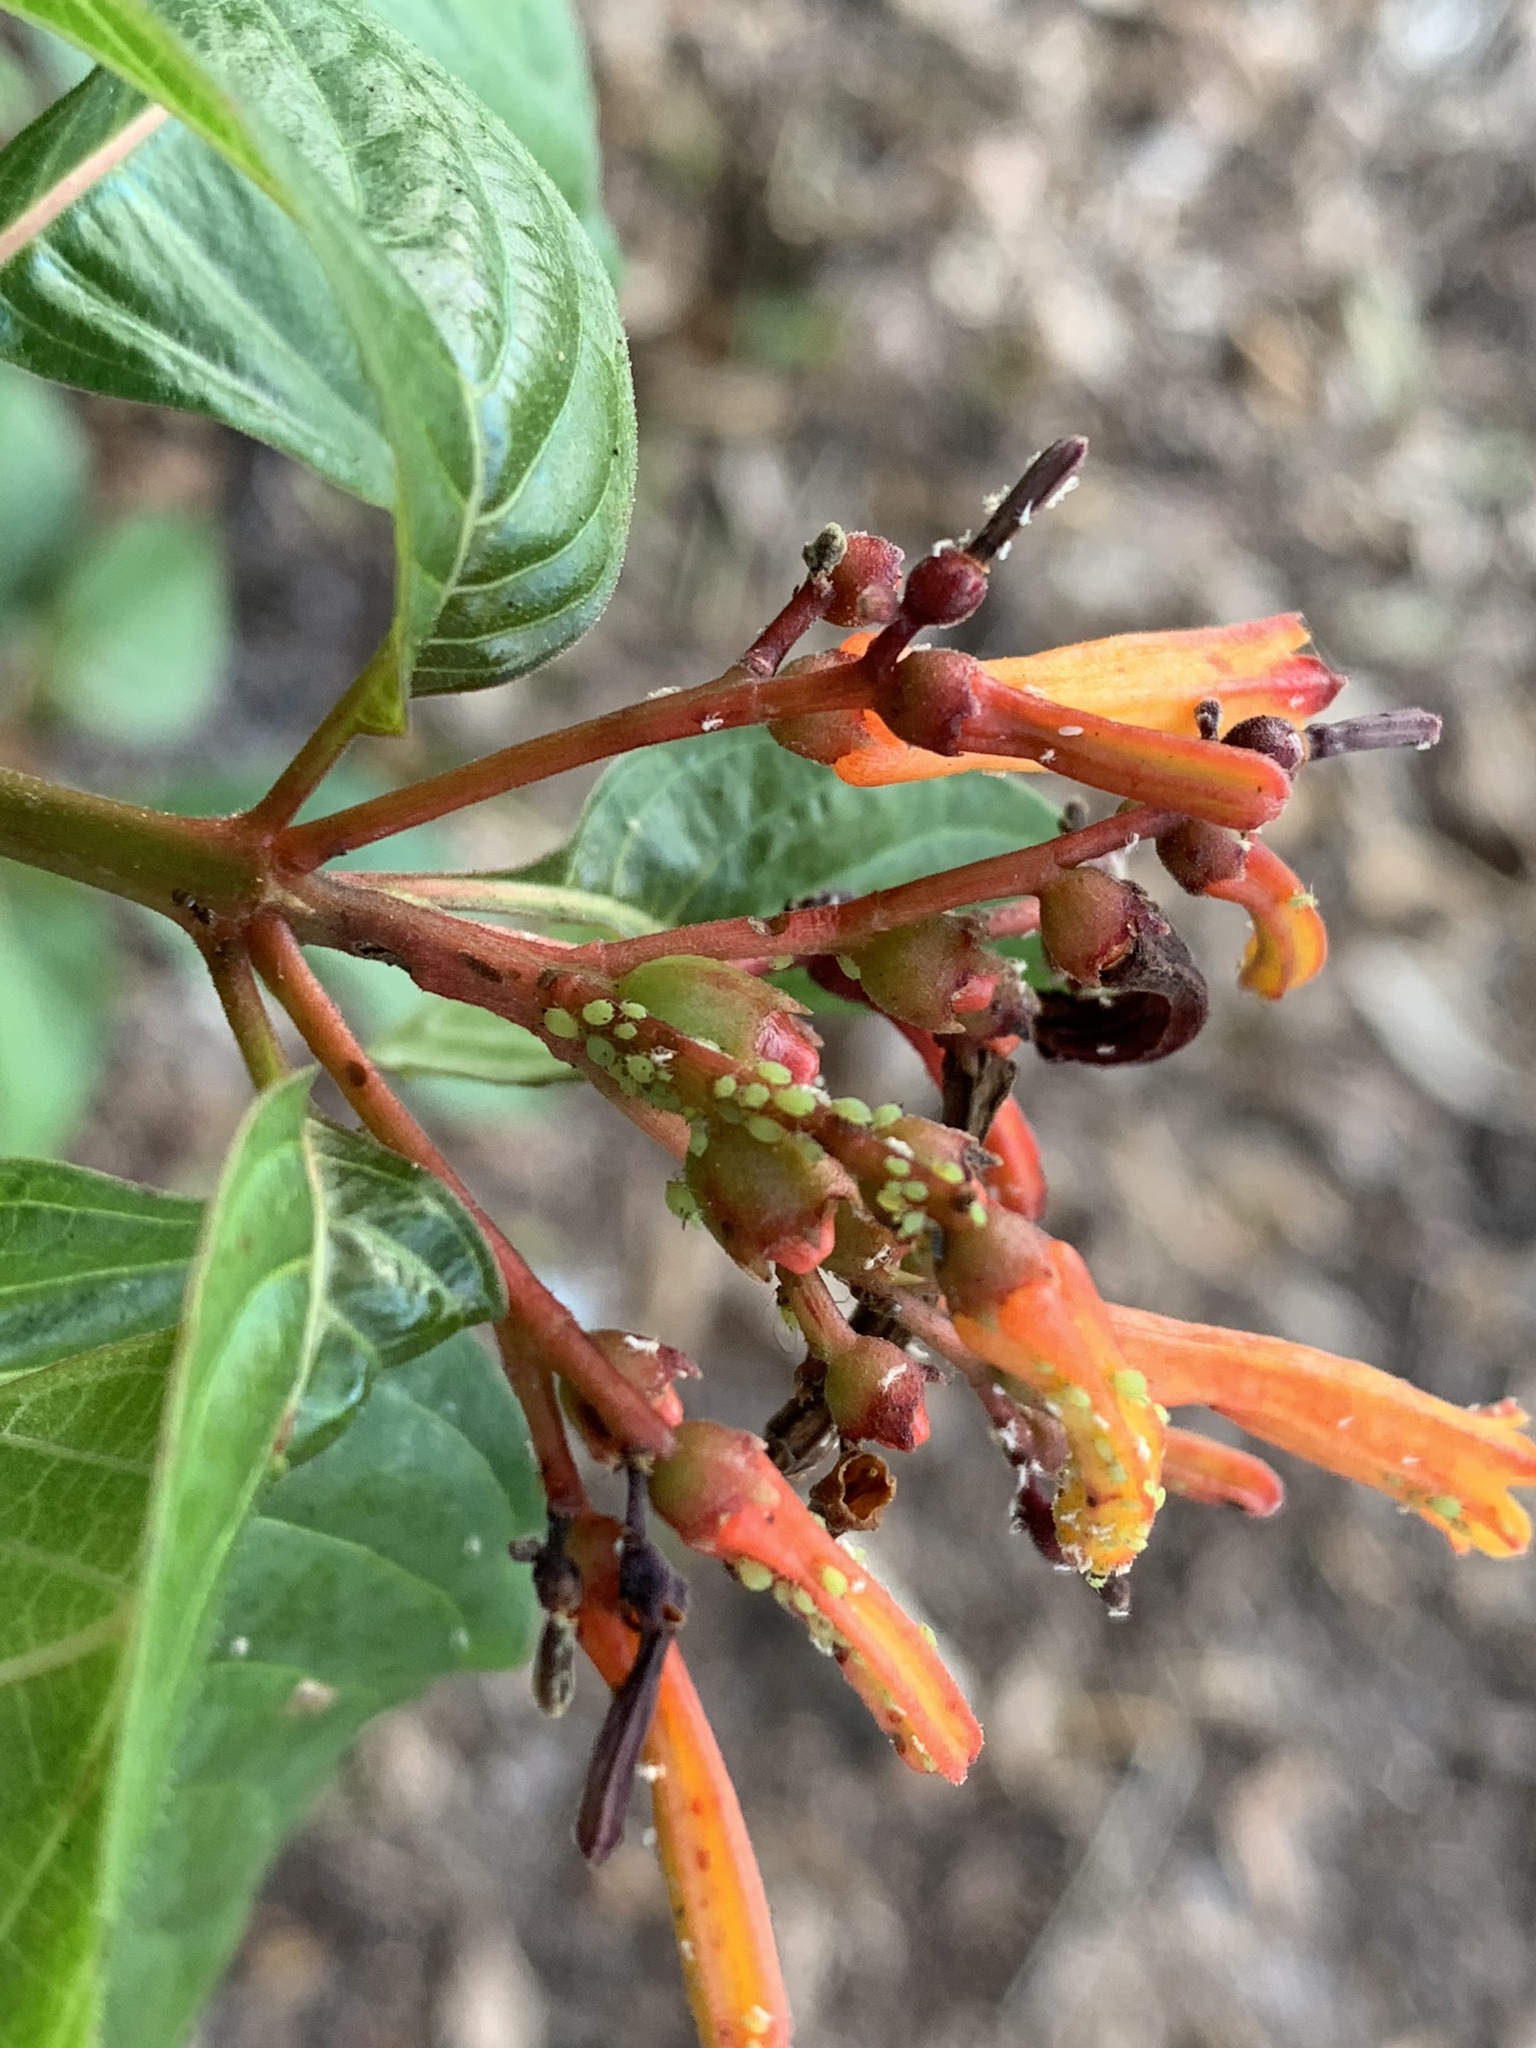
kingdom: Animalia
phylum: Arthropoda
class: Insecta
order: Hemiptera
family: Aphididae
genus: Aphis
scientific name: Aphis spiraecola
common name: Spirea aphid
